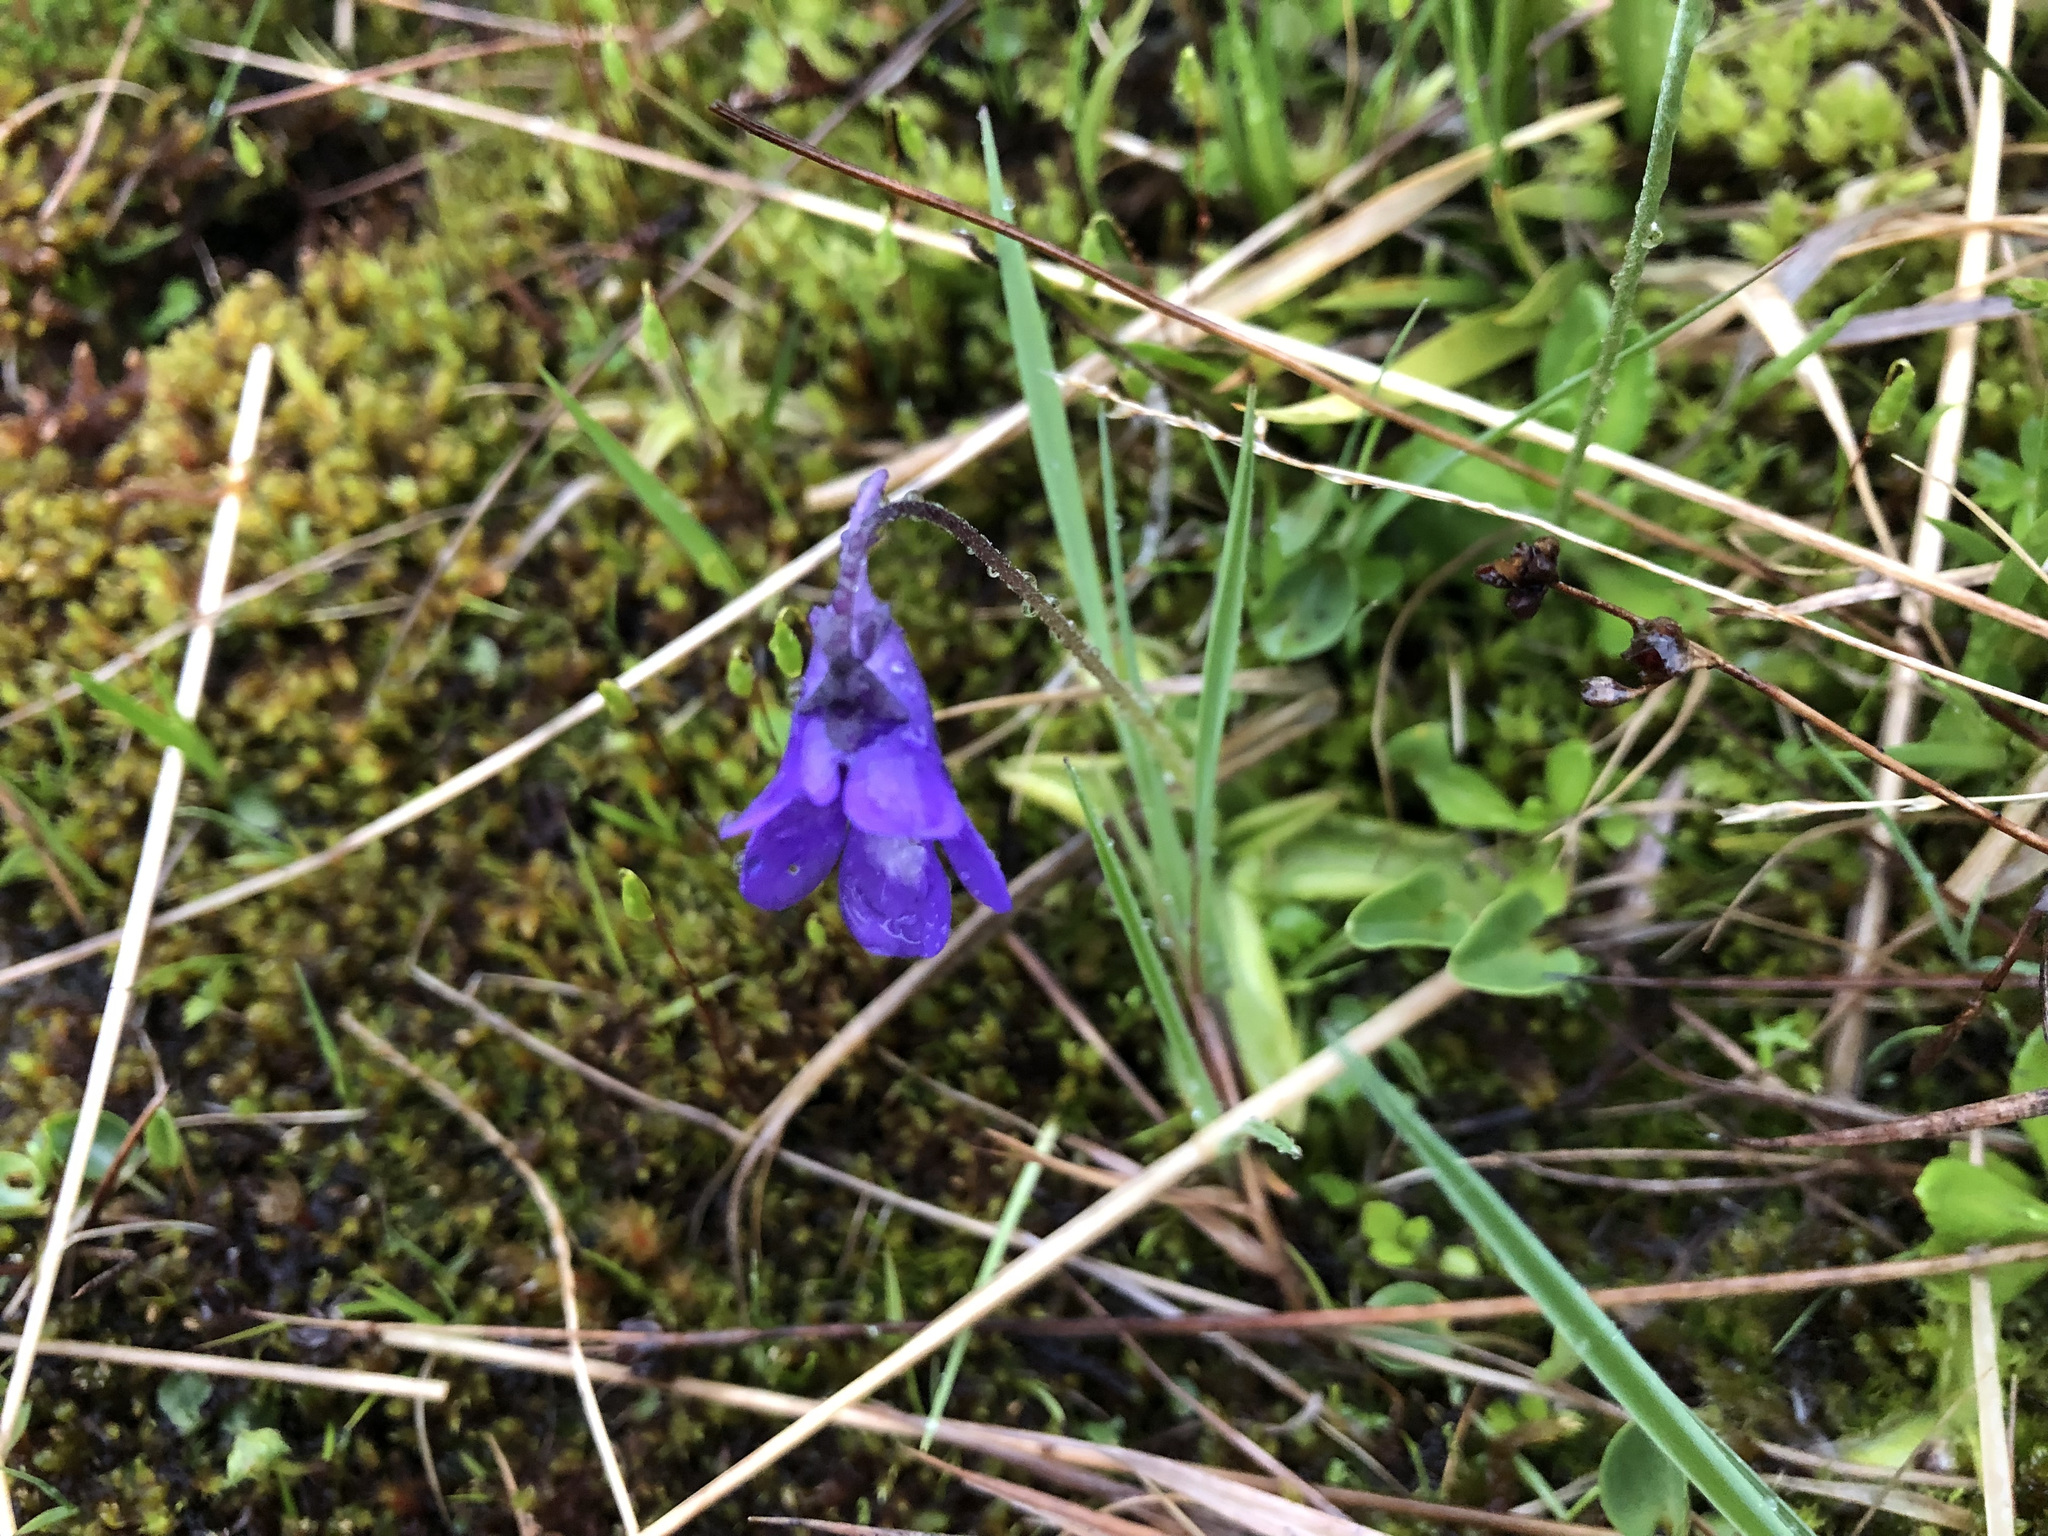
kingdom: Plantae
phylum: Tracheophyta
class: Magnoliopsida
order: Lamiales
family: Lentibulariaceae
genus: Pinguicula
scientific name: Pinguicula leptoceras
